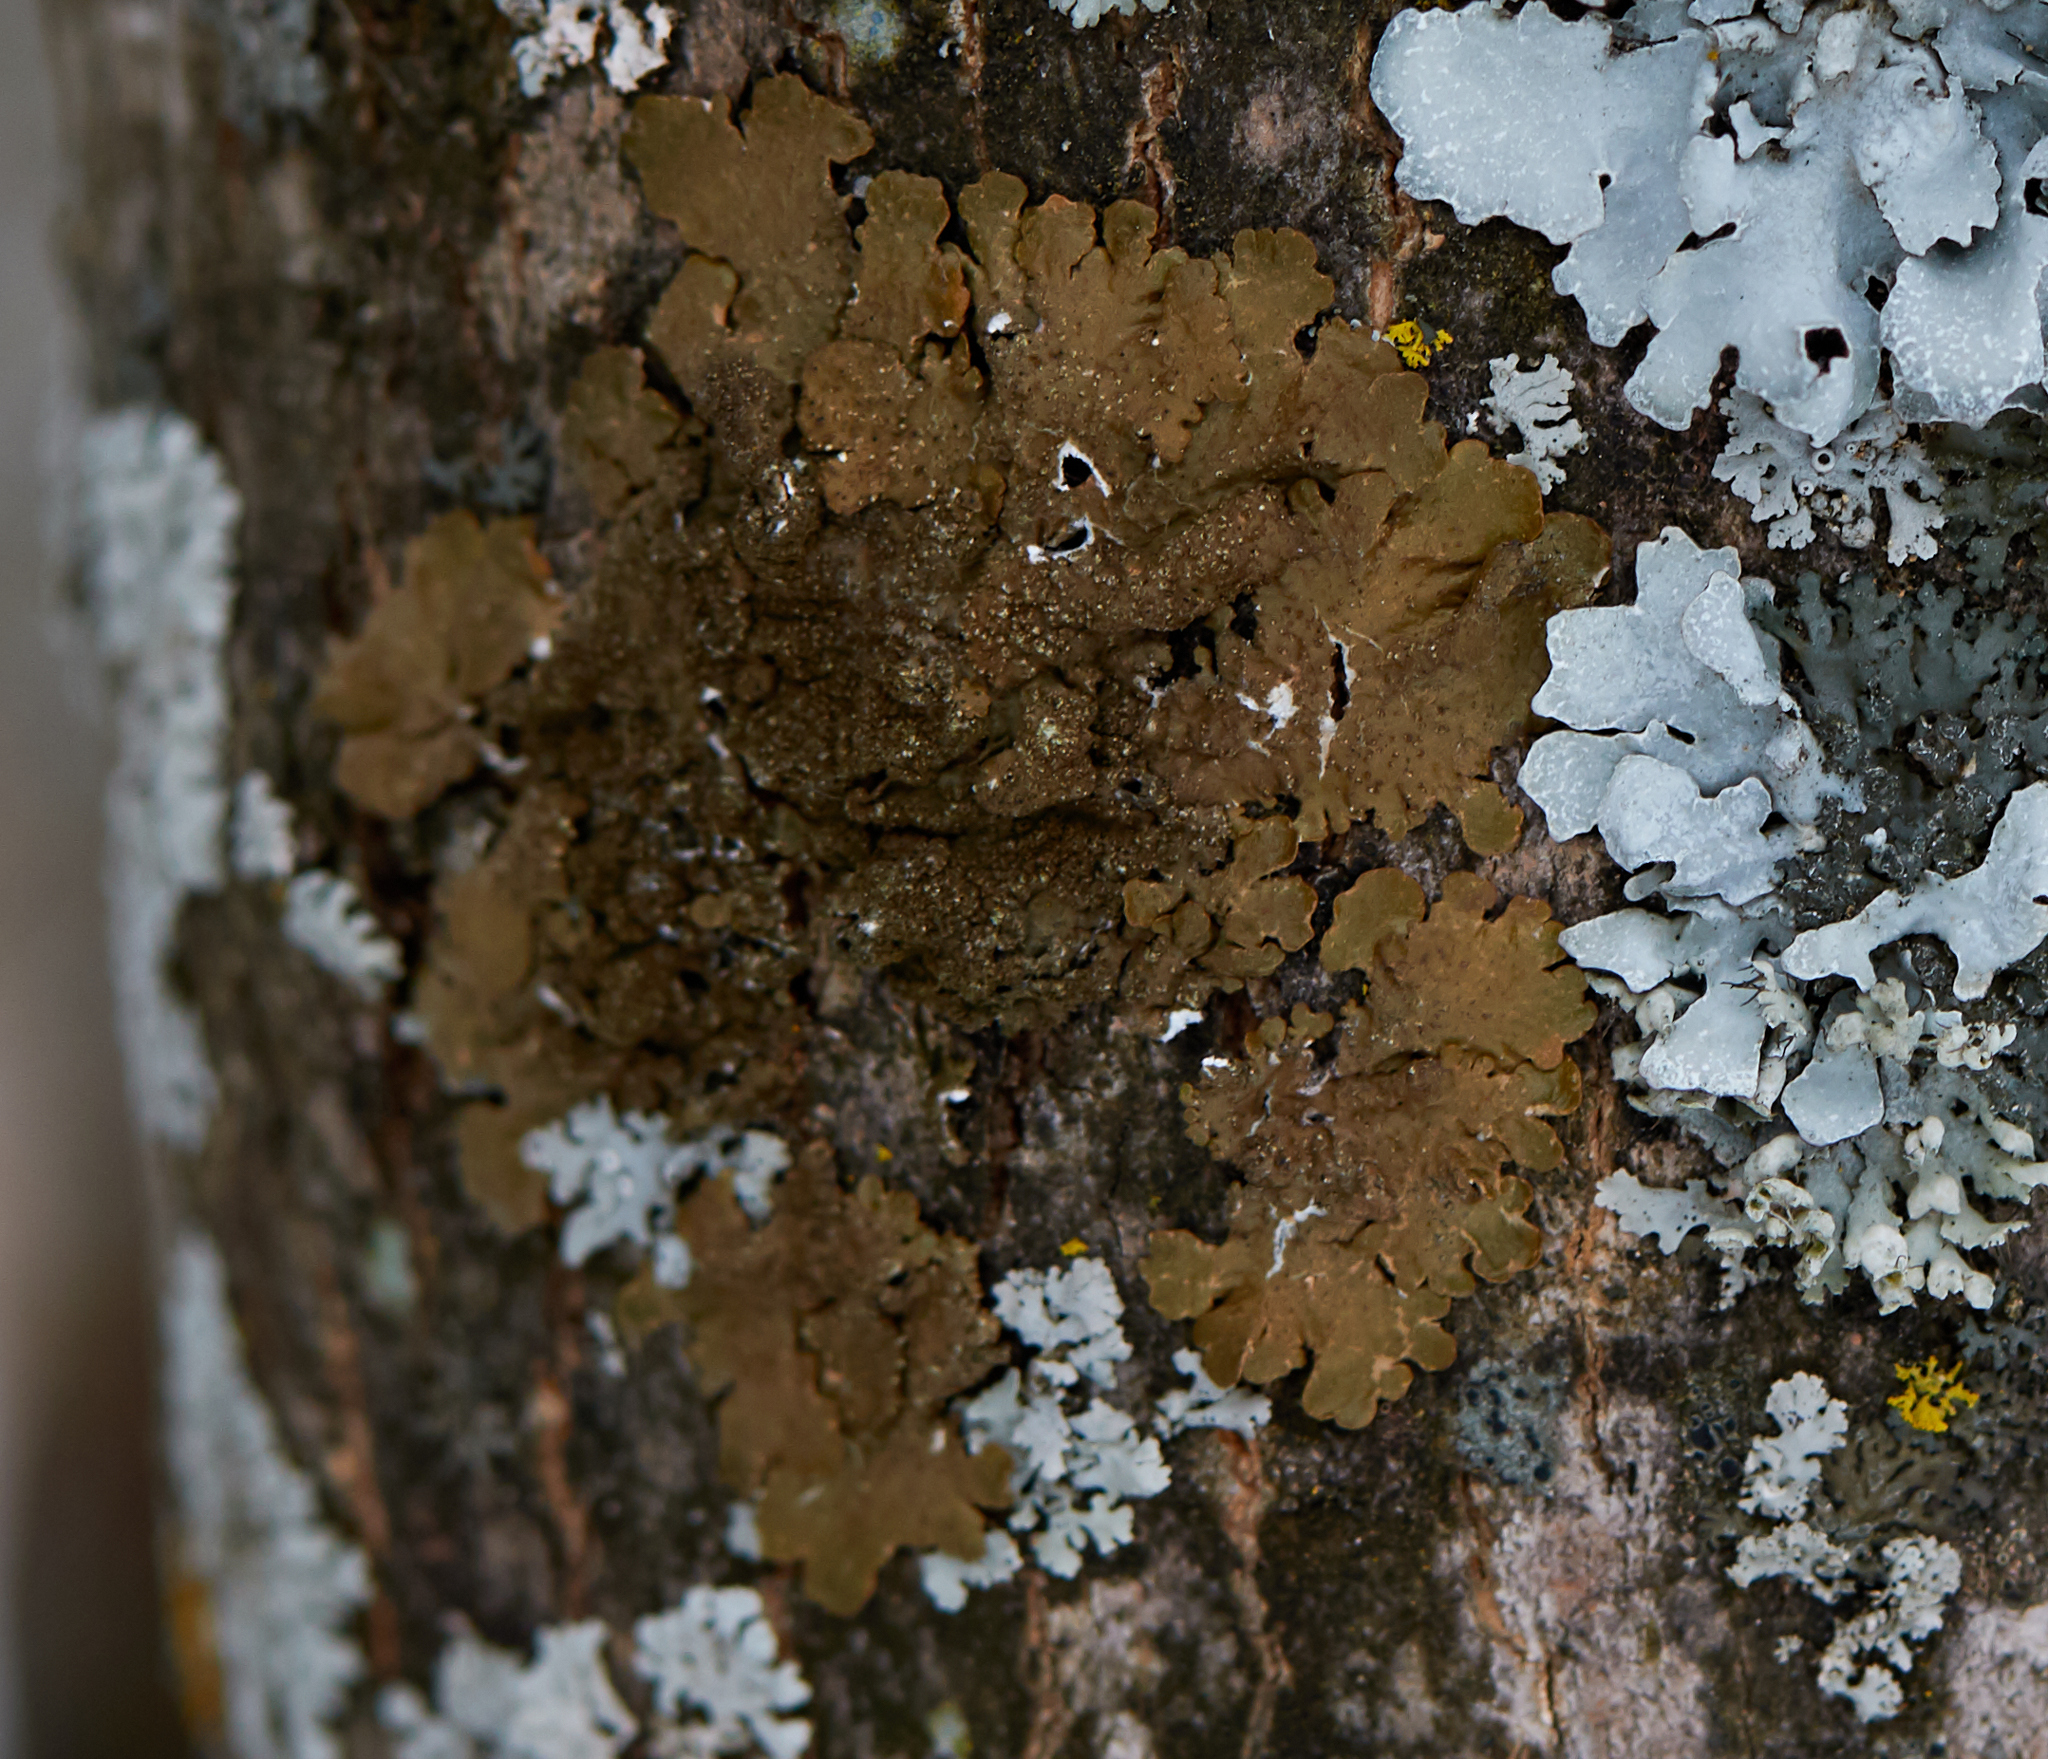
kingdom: Fungi
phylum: Ascomycota
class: Lecanoromycetes
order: Lecanorales
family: Parmeliaceae
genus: Melanelixia
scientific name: Melanelixia subaurifera
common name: Abraded camouflage lichen
